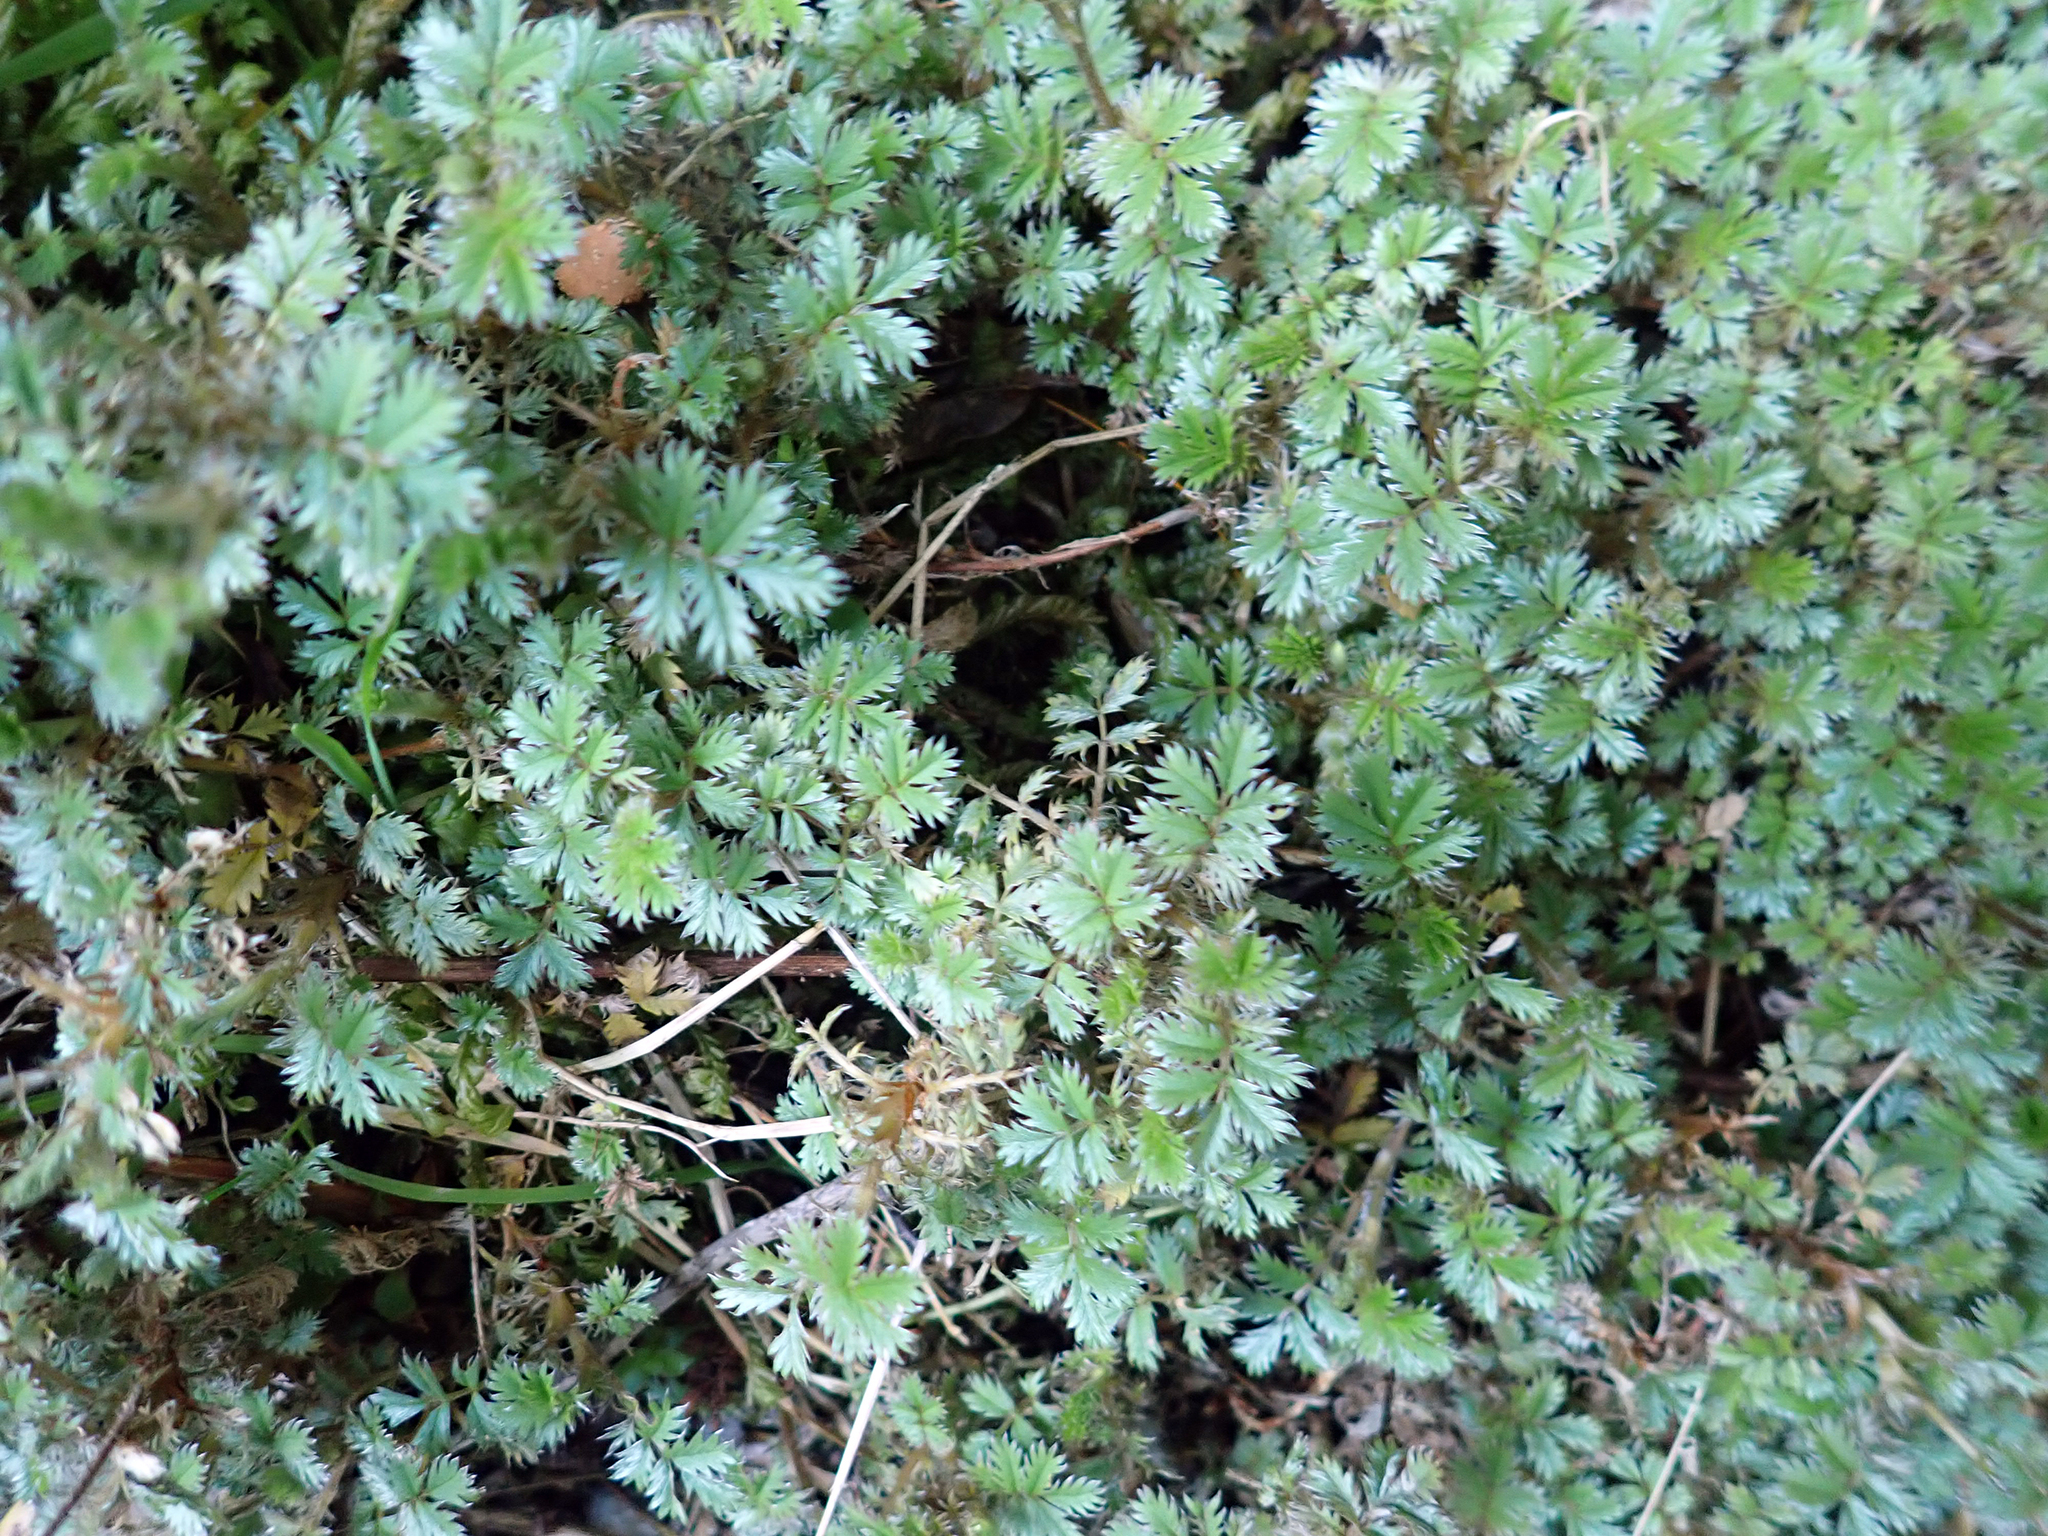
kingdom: Plantae
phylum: Tracheophyta
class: Magnoliopsida
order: Rosales
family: Rosaceae
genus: Acaena
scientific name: Acaena anserinifolia
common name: Bronze pirri-pirri-bur
